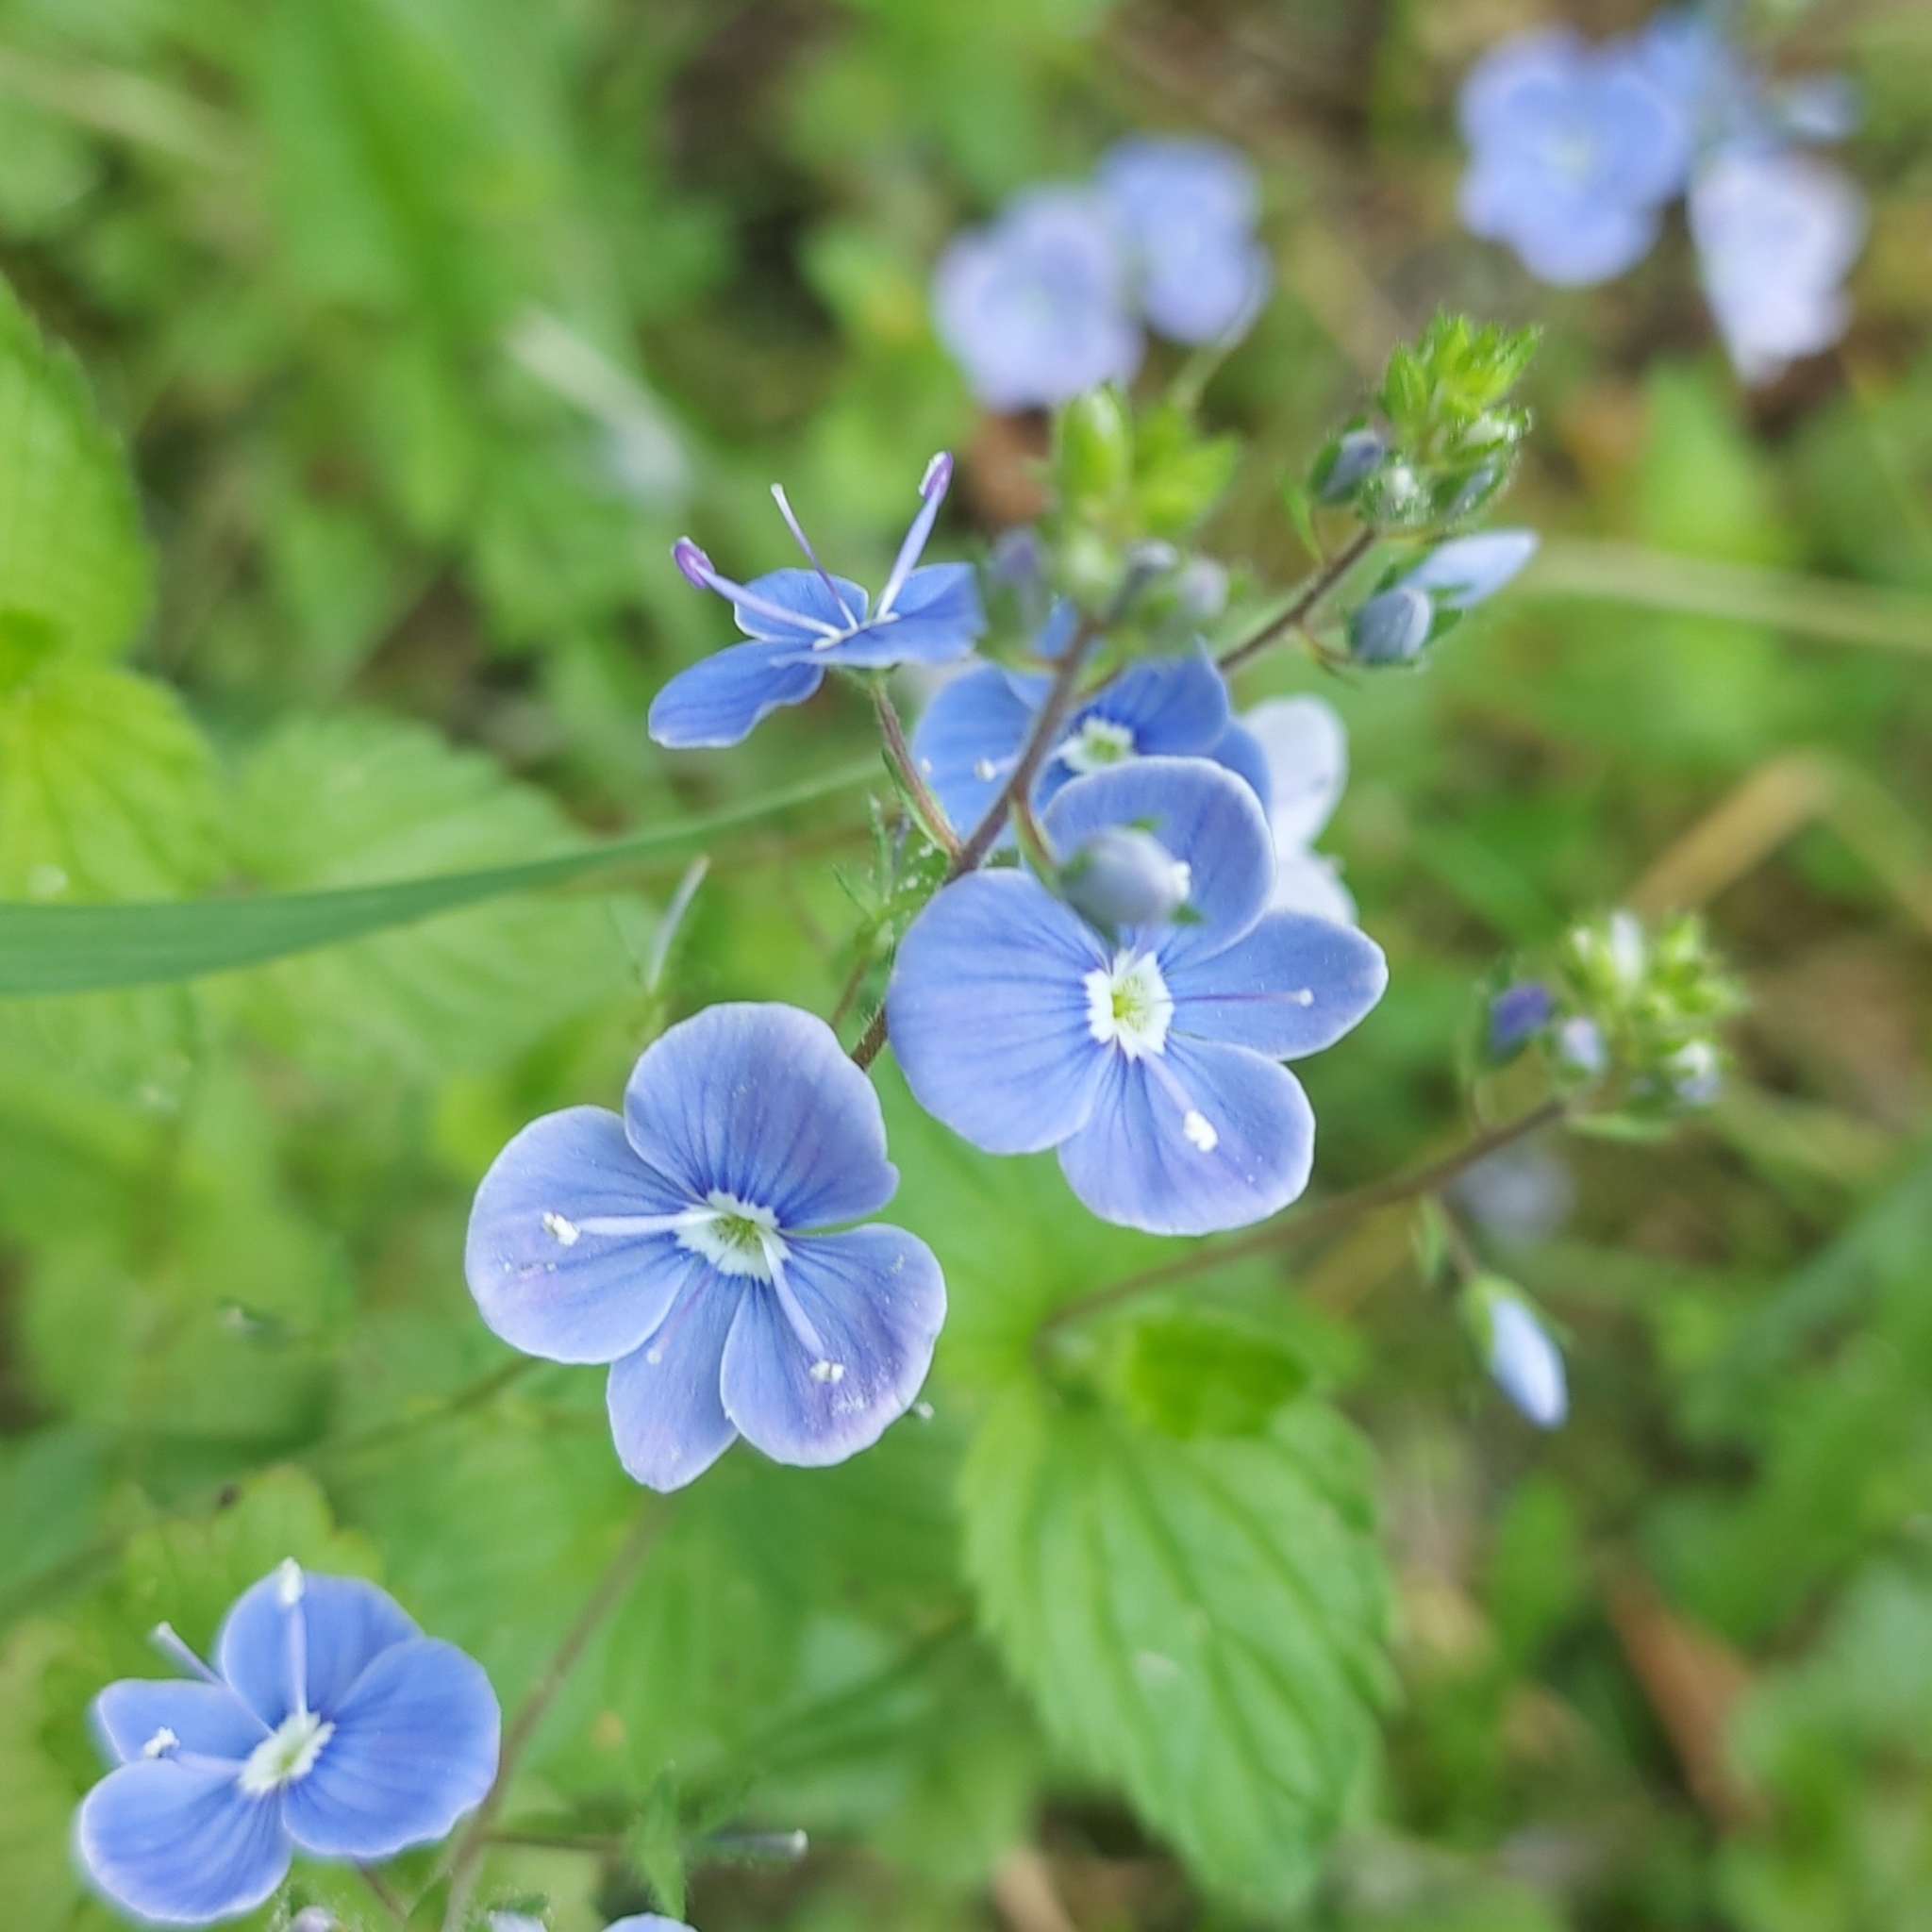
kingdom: Plantae
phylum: Tracheophyta
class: Magnoliopsida
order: Lamiales
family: Plantaginaceae
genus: Veronica
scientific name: Veronica chamaedrys
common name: Germander speedwell
